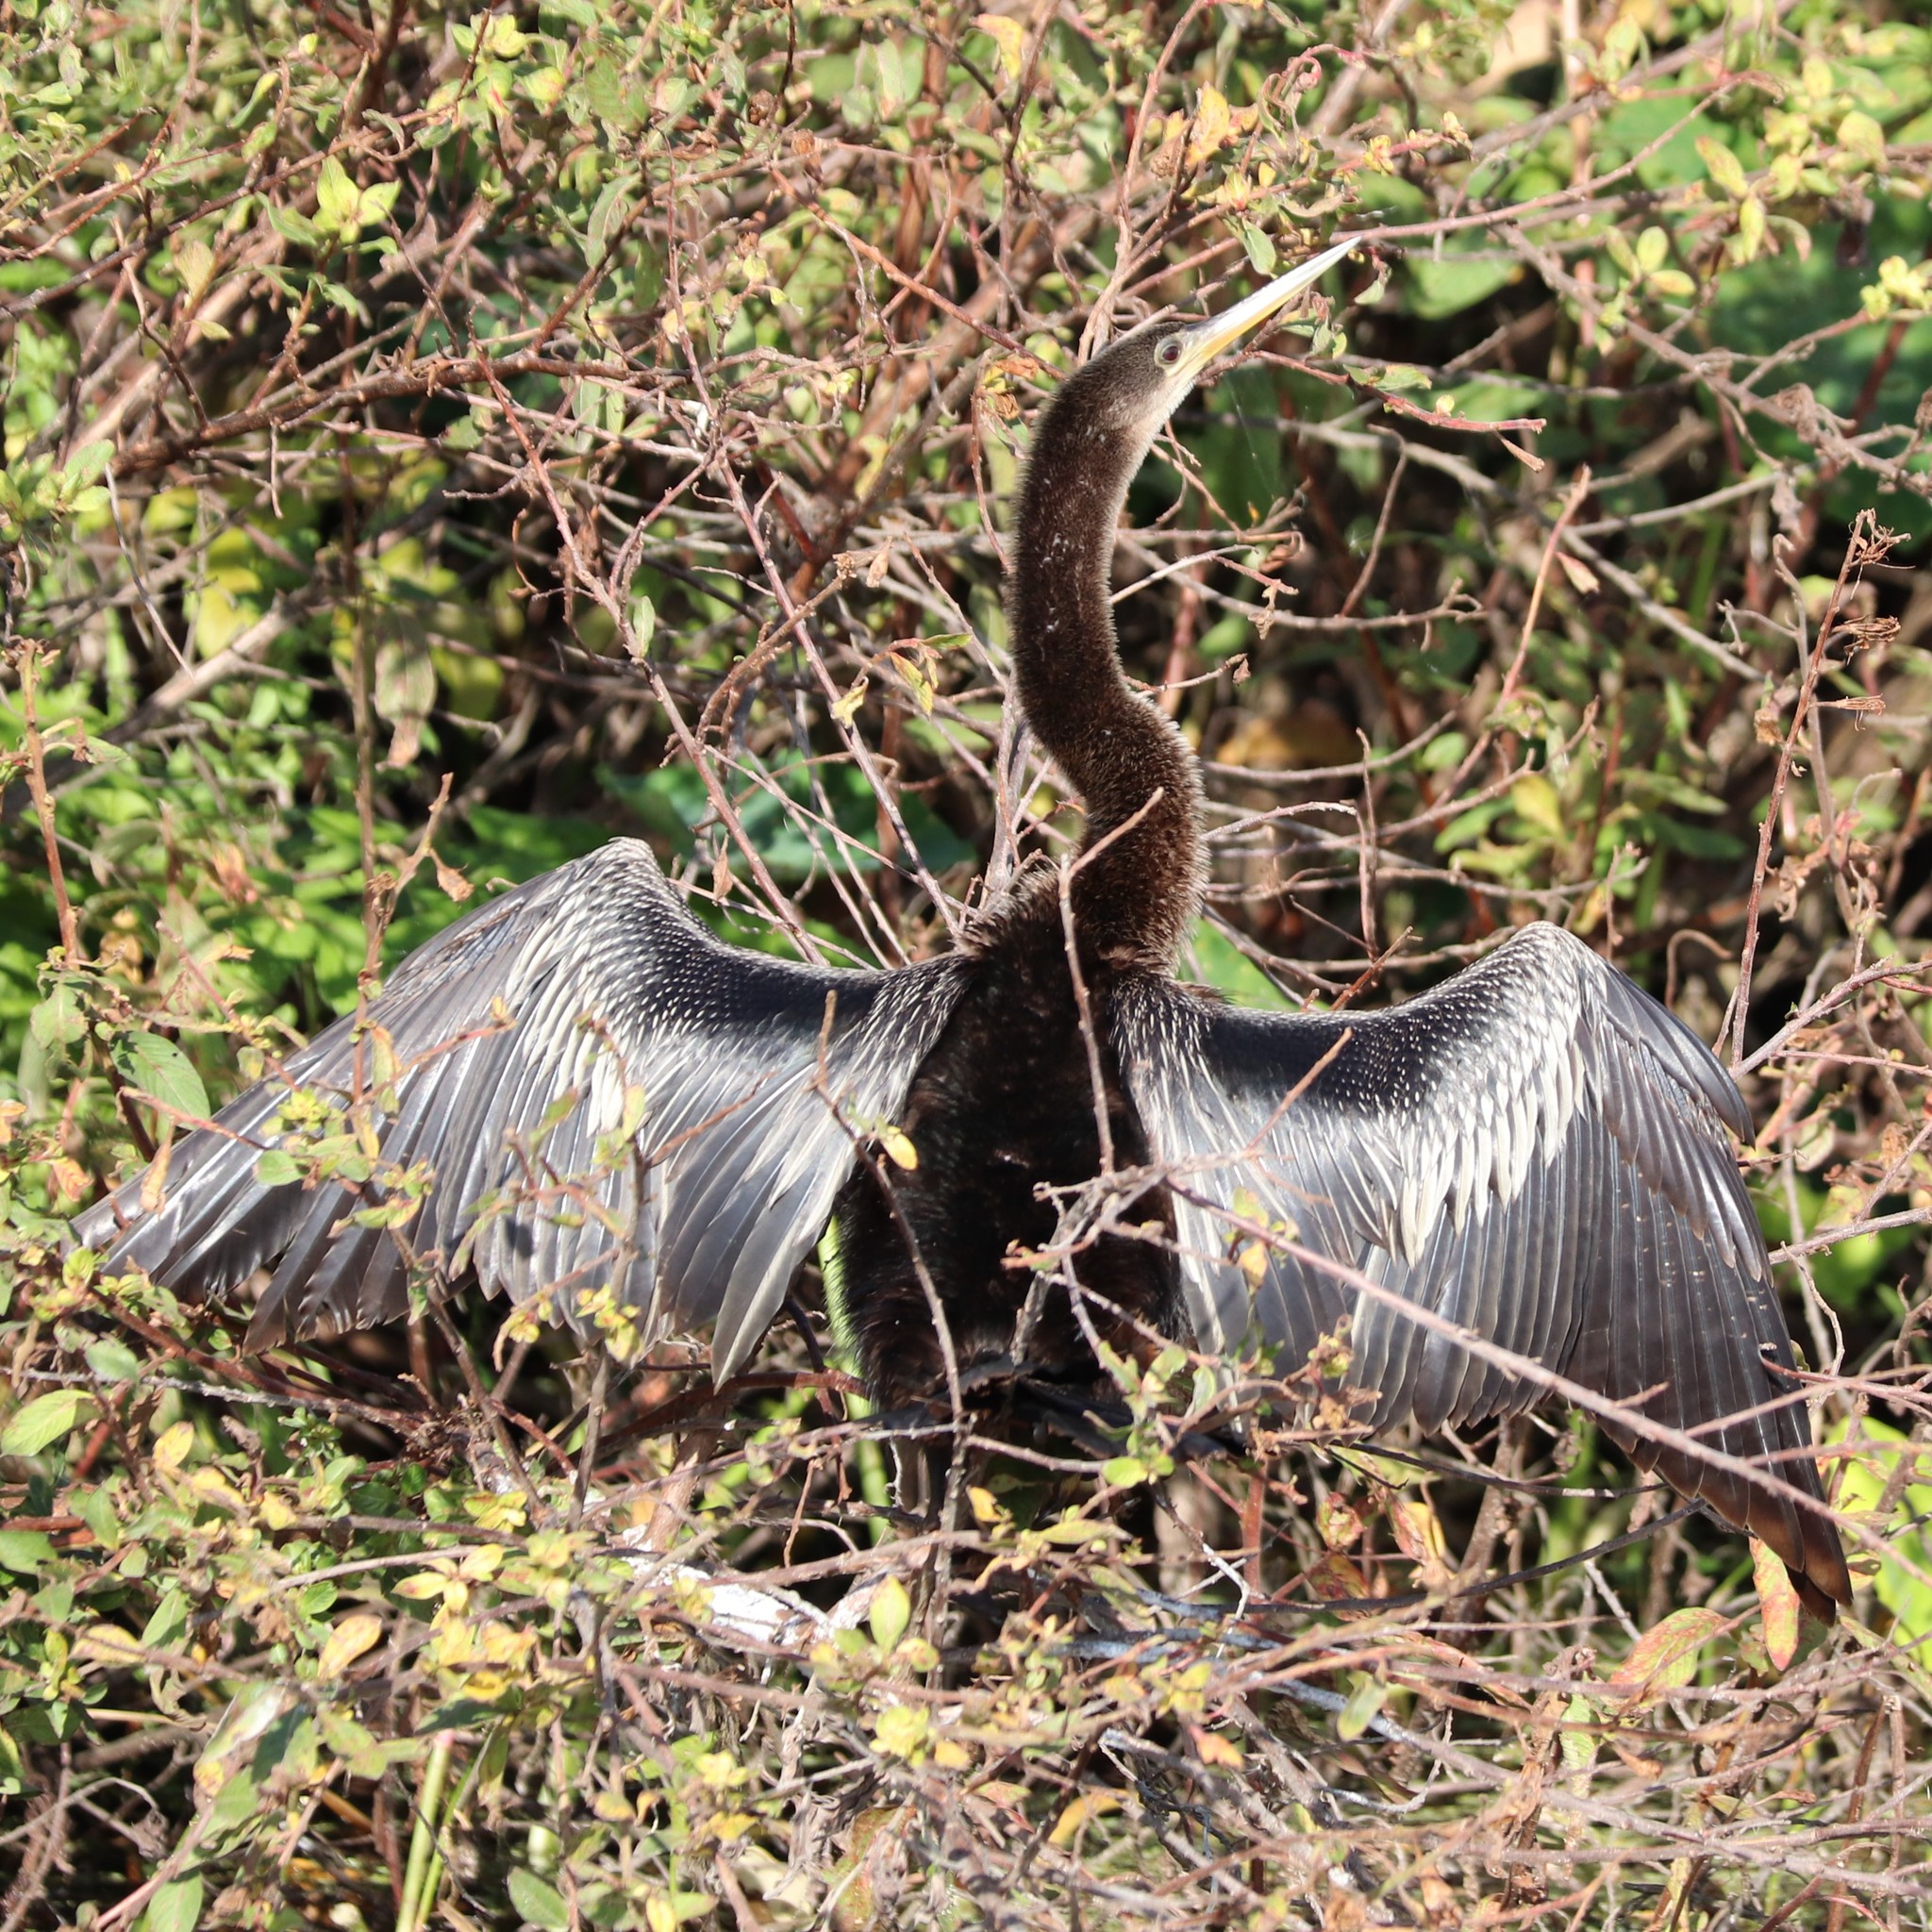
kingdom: Animalia
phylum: Chordata
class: Aves
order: Suliformes
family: Anhingidae
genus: Anhinga
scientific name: Anhinga anhinga
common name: Anhinga
